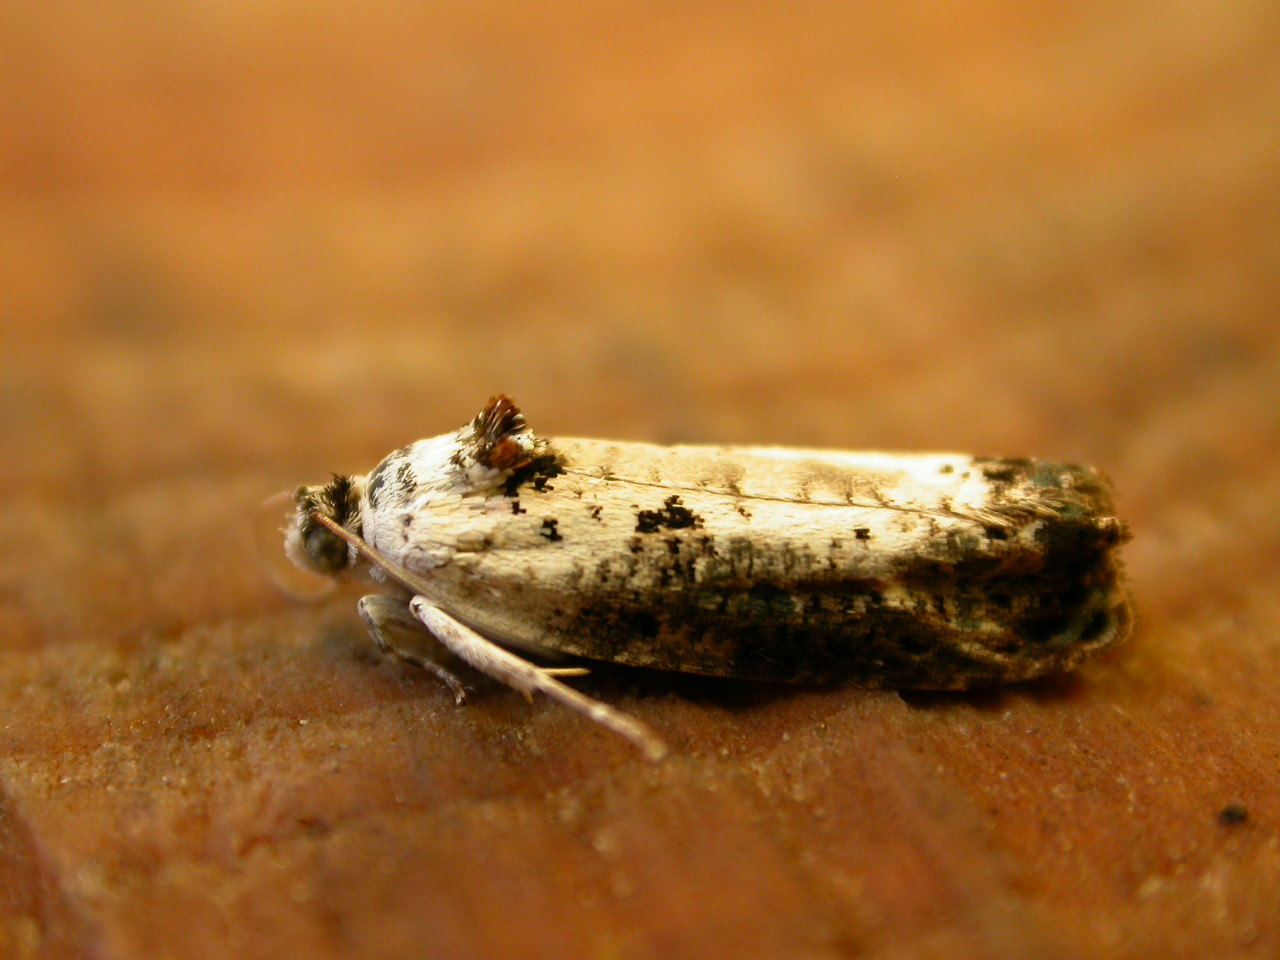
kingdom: Animalia
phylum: Arthropoda
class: Insecta
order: Lepidoptera
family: Tortricidae
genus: Hedya
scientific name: Hedya salicella
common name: Large tortricid moth
